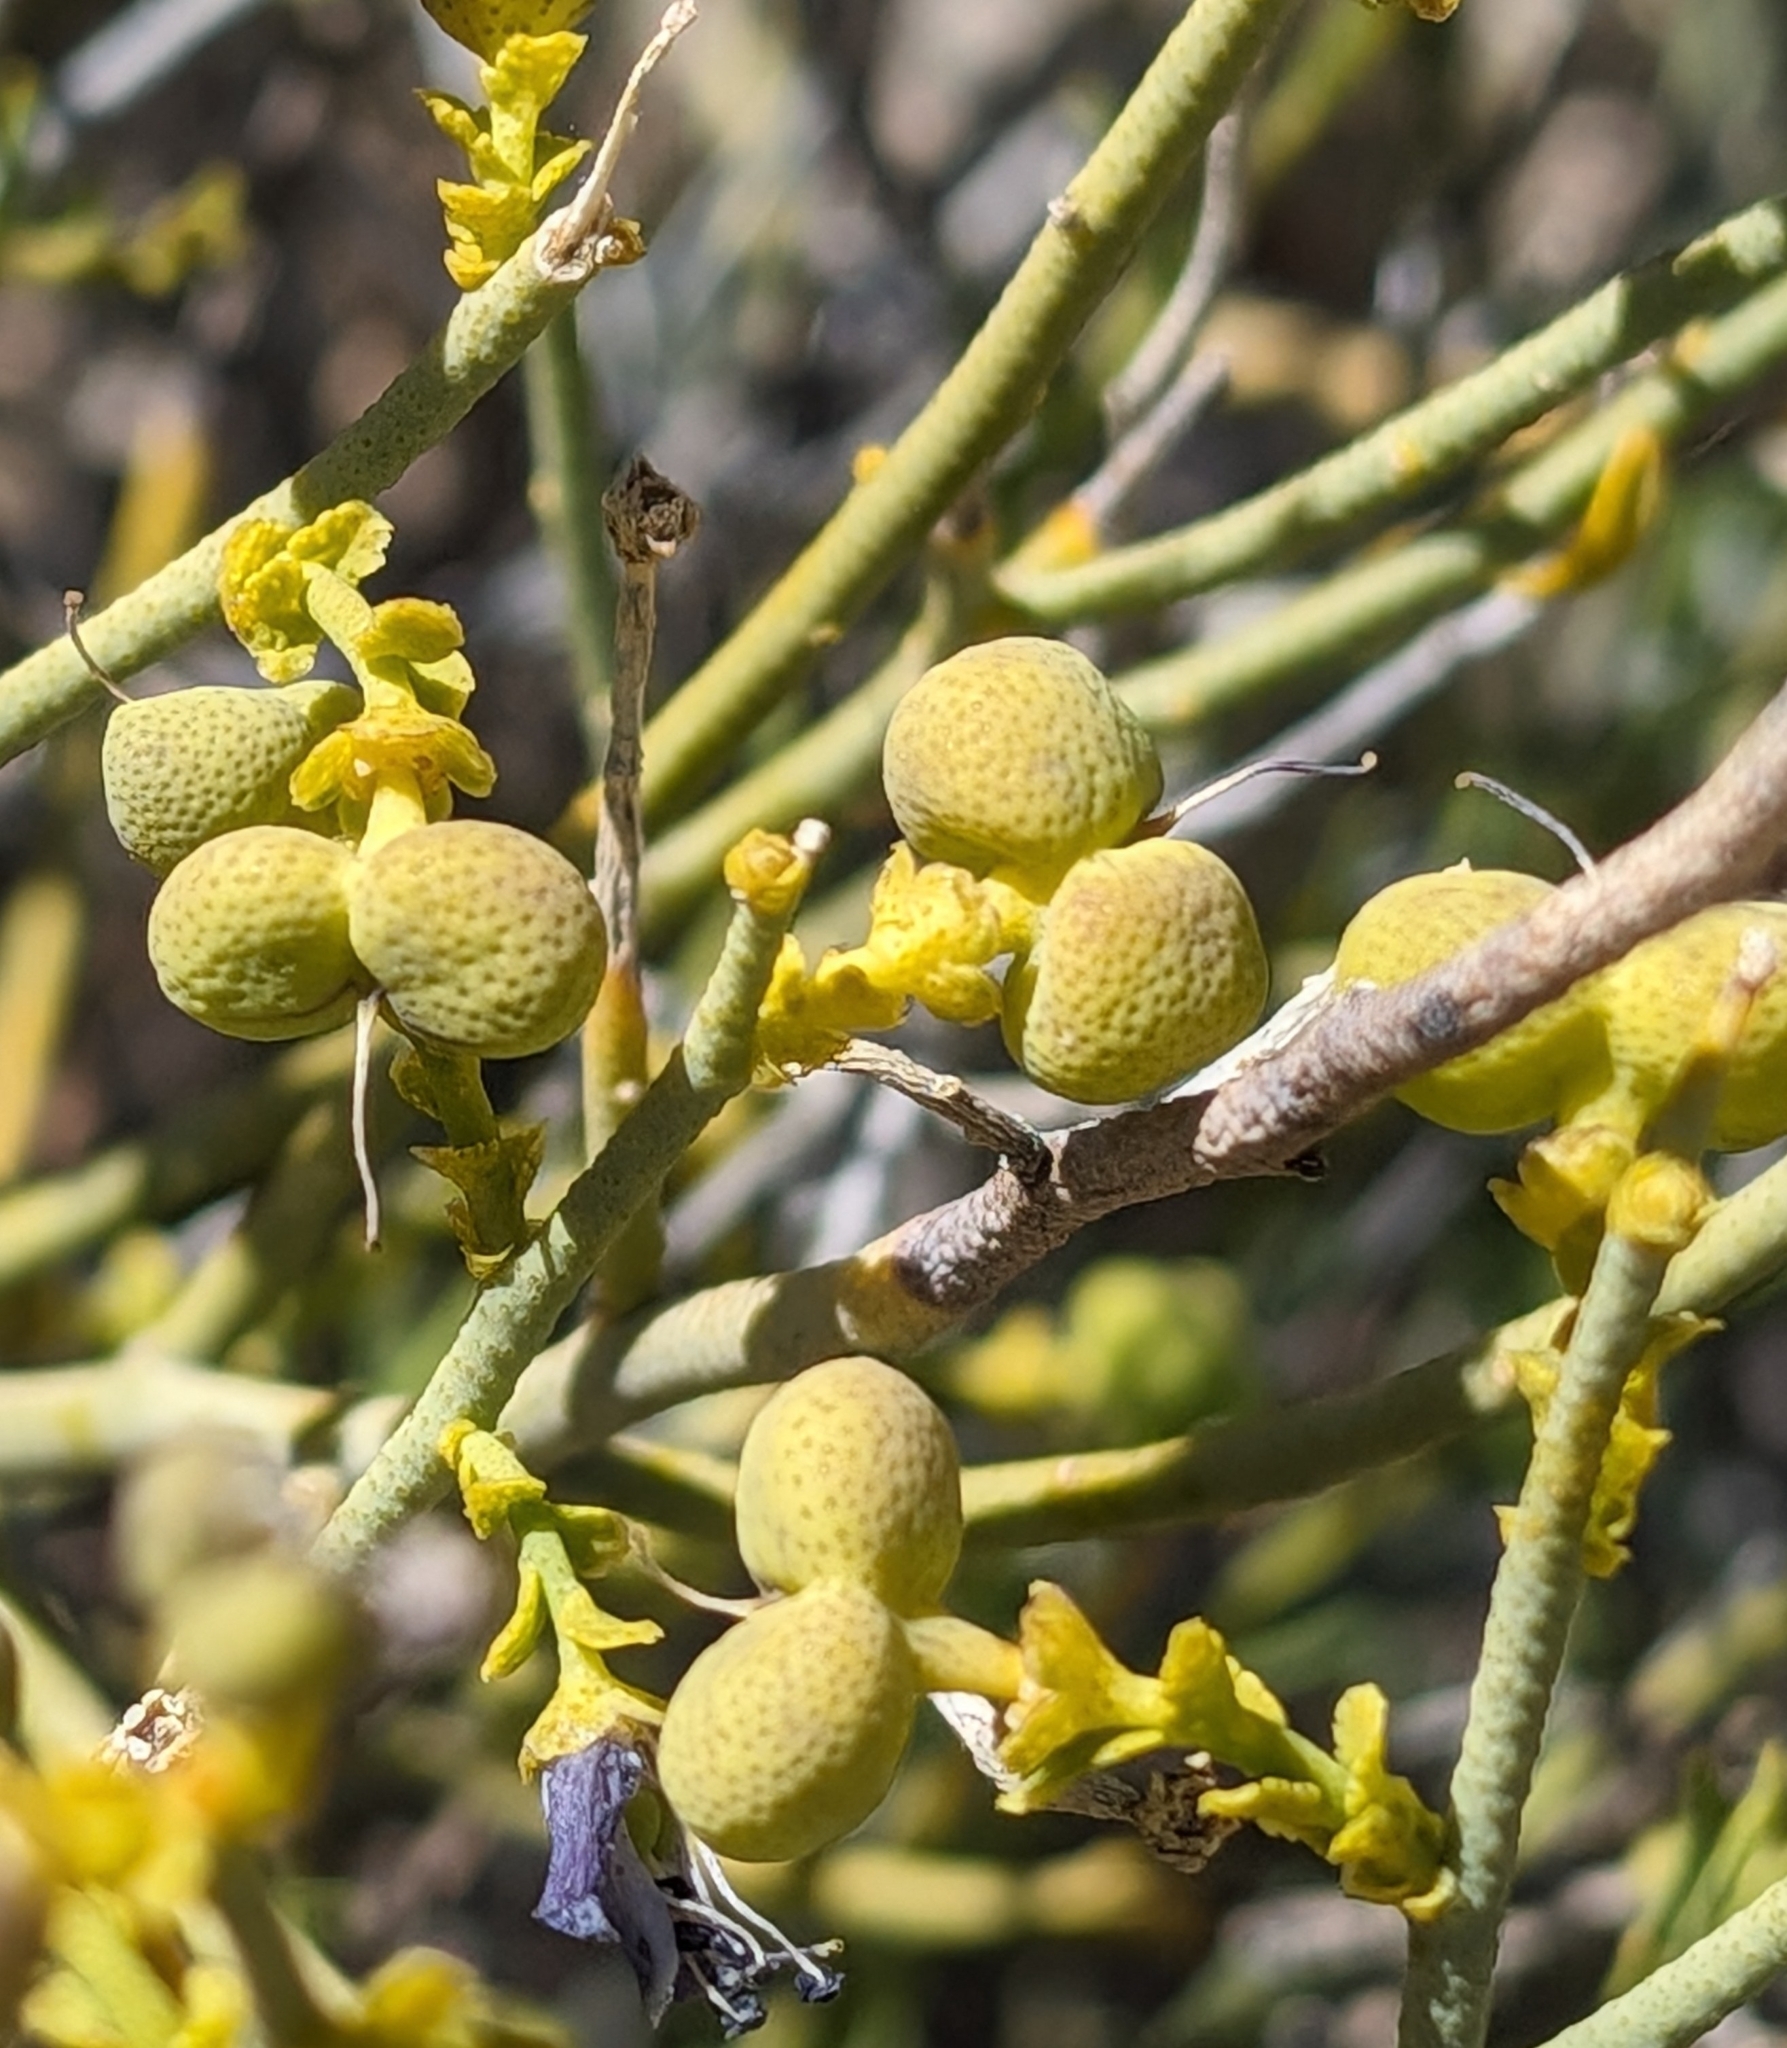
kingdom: Plantae
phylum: Tracheophyta
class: Magnoliopsida
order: Sapindales
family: Rutaceae
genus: Thamnosma
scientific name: Thamnosma montana
